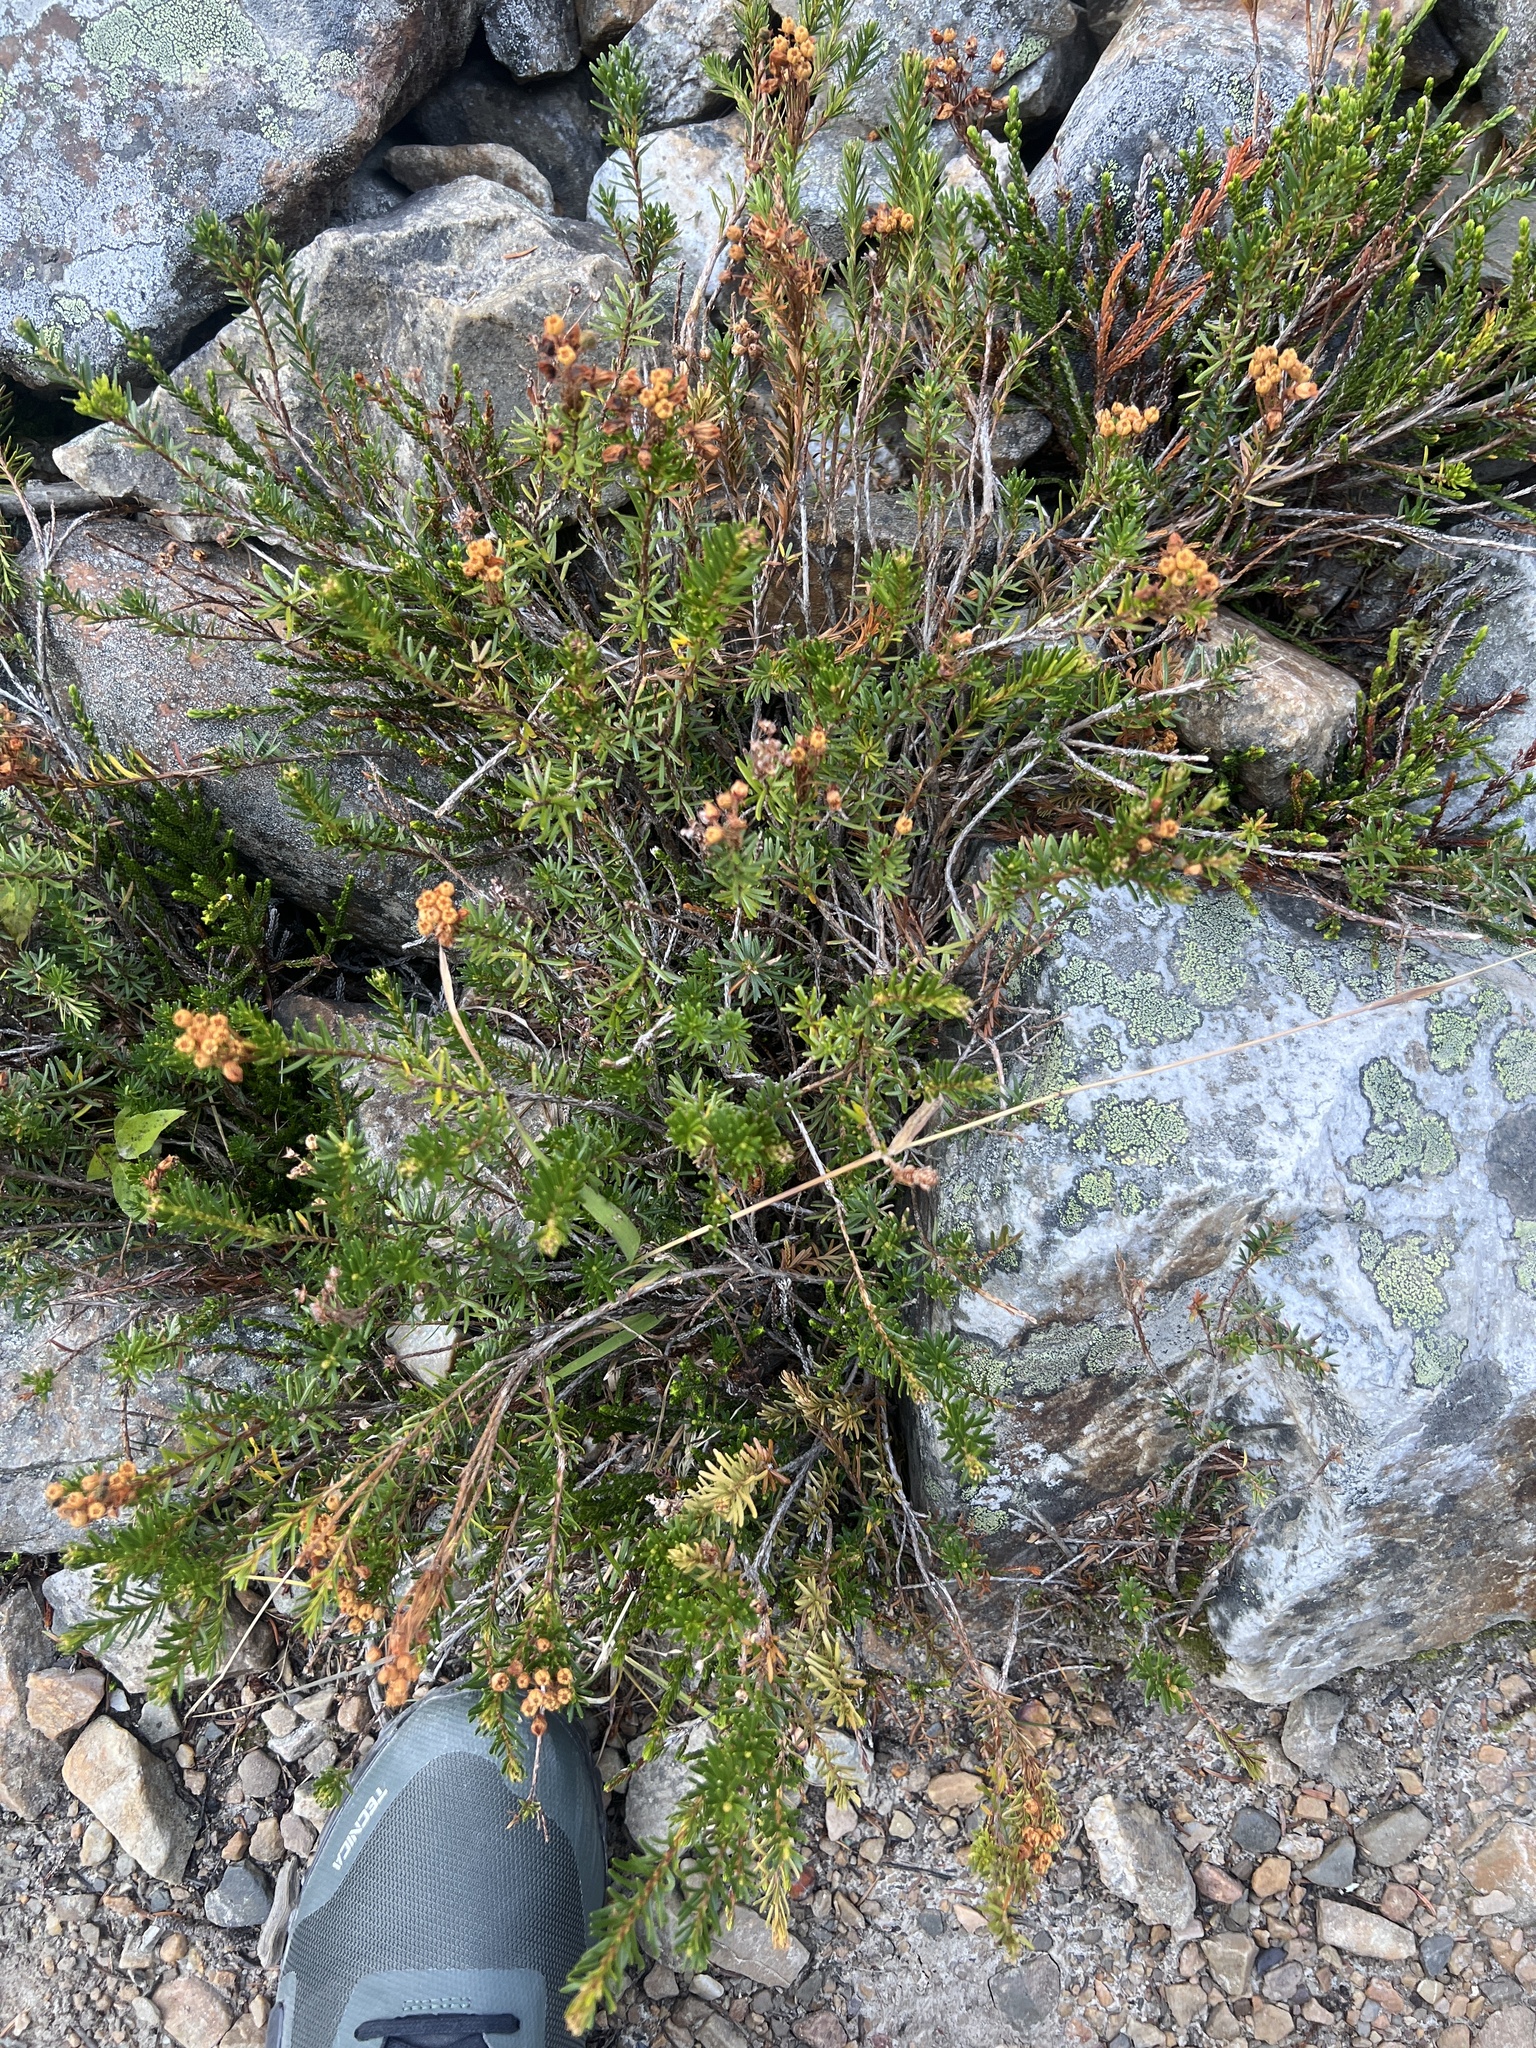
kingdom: Plantae
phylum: Tracheophyta
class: Magnoliopsida
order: Ericales
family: Ericaceae
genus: Phyllodoce
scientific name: Phyllodoce glanduliflora
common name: Cream mountain heather
